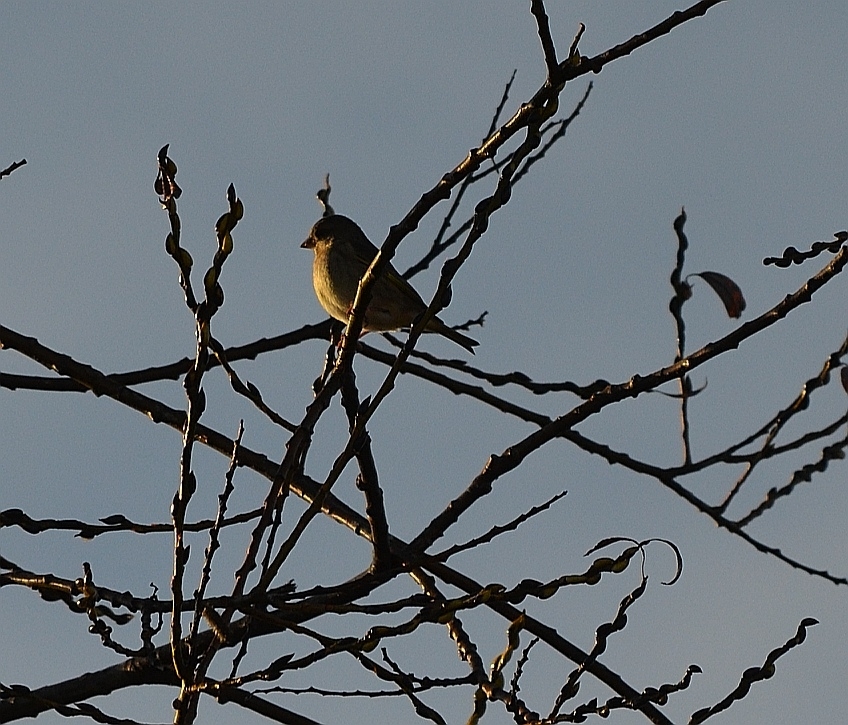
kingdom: Animalia
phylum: Chordata
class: Aves
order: Passeriformes
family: Fringillidae
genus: Fringilla
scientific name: Fringilla coelebs
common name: Common chaffinch
